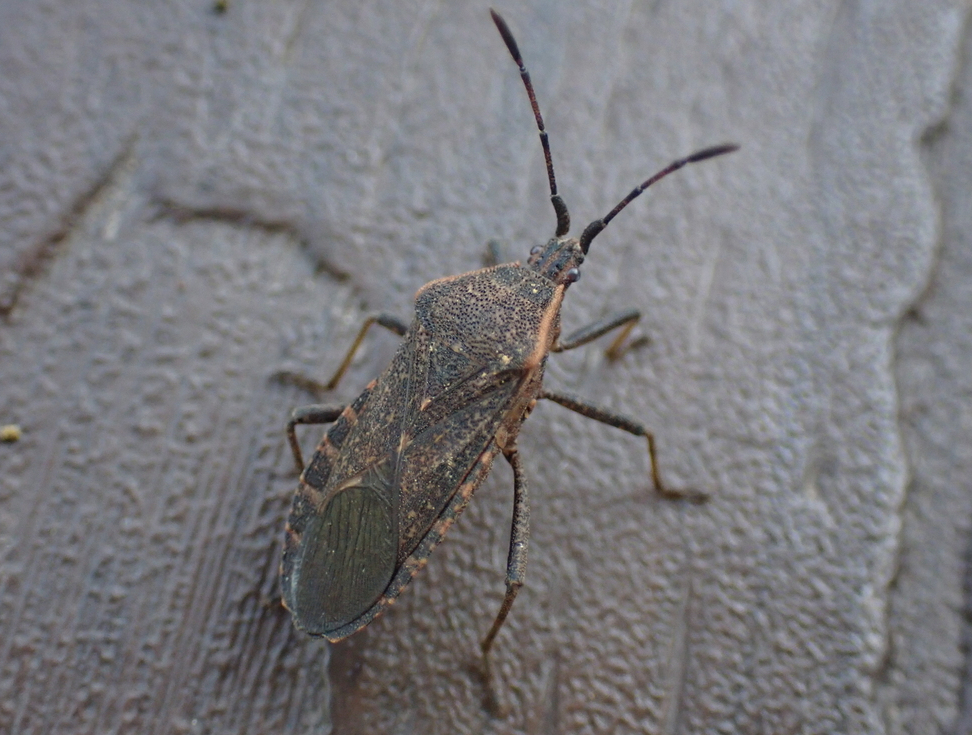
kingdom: Animalia
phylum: Arthropoda
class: Insecta
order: Hemiptera
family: Coreidae
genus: Anasa
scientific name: Anasa tristis
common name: Squash bug
